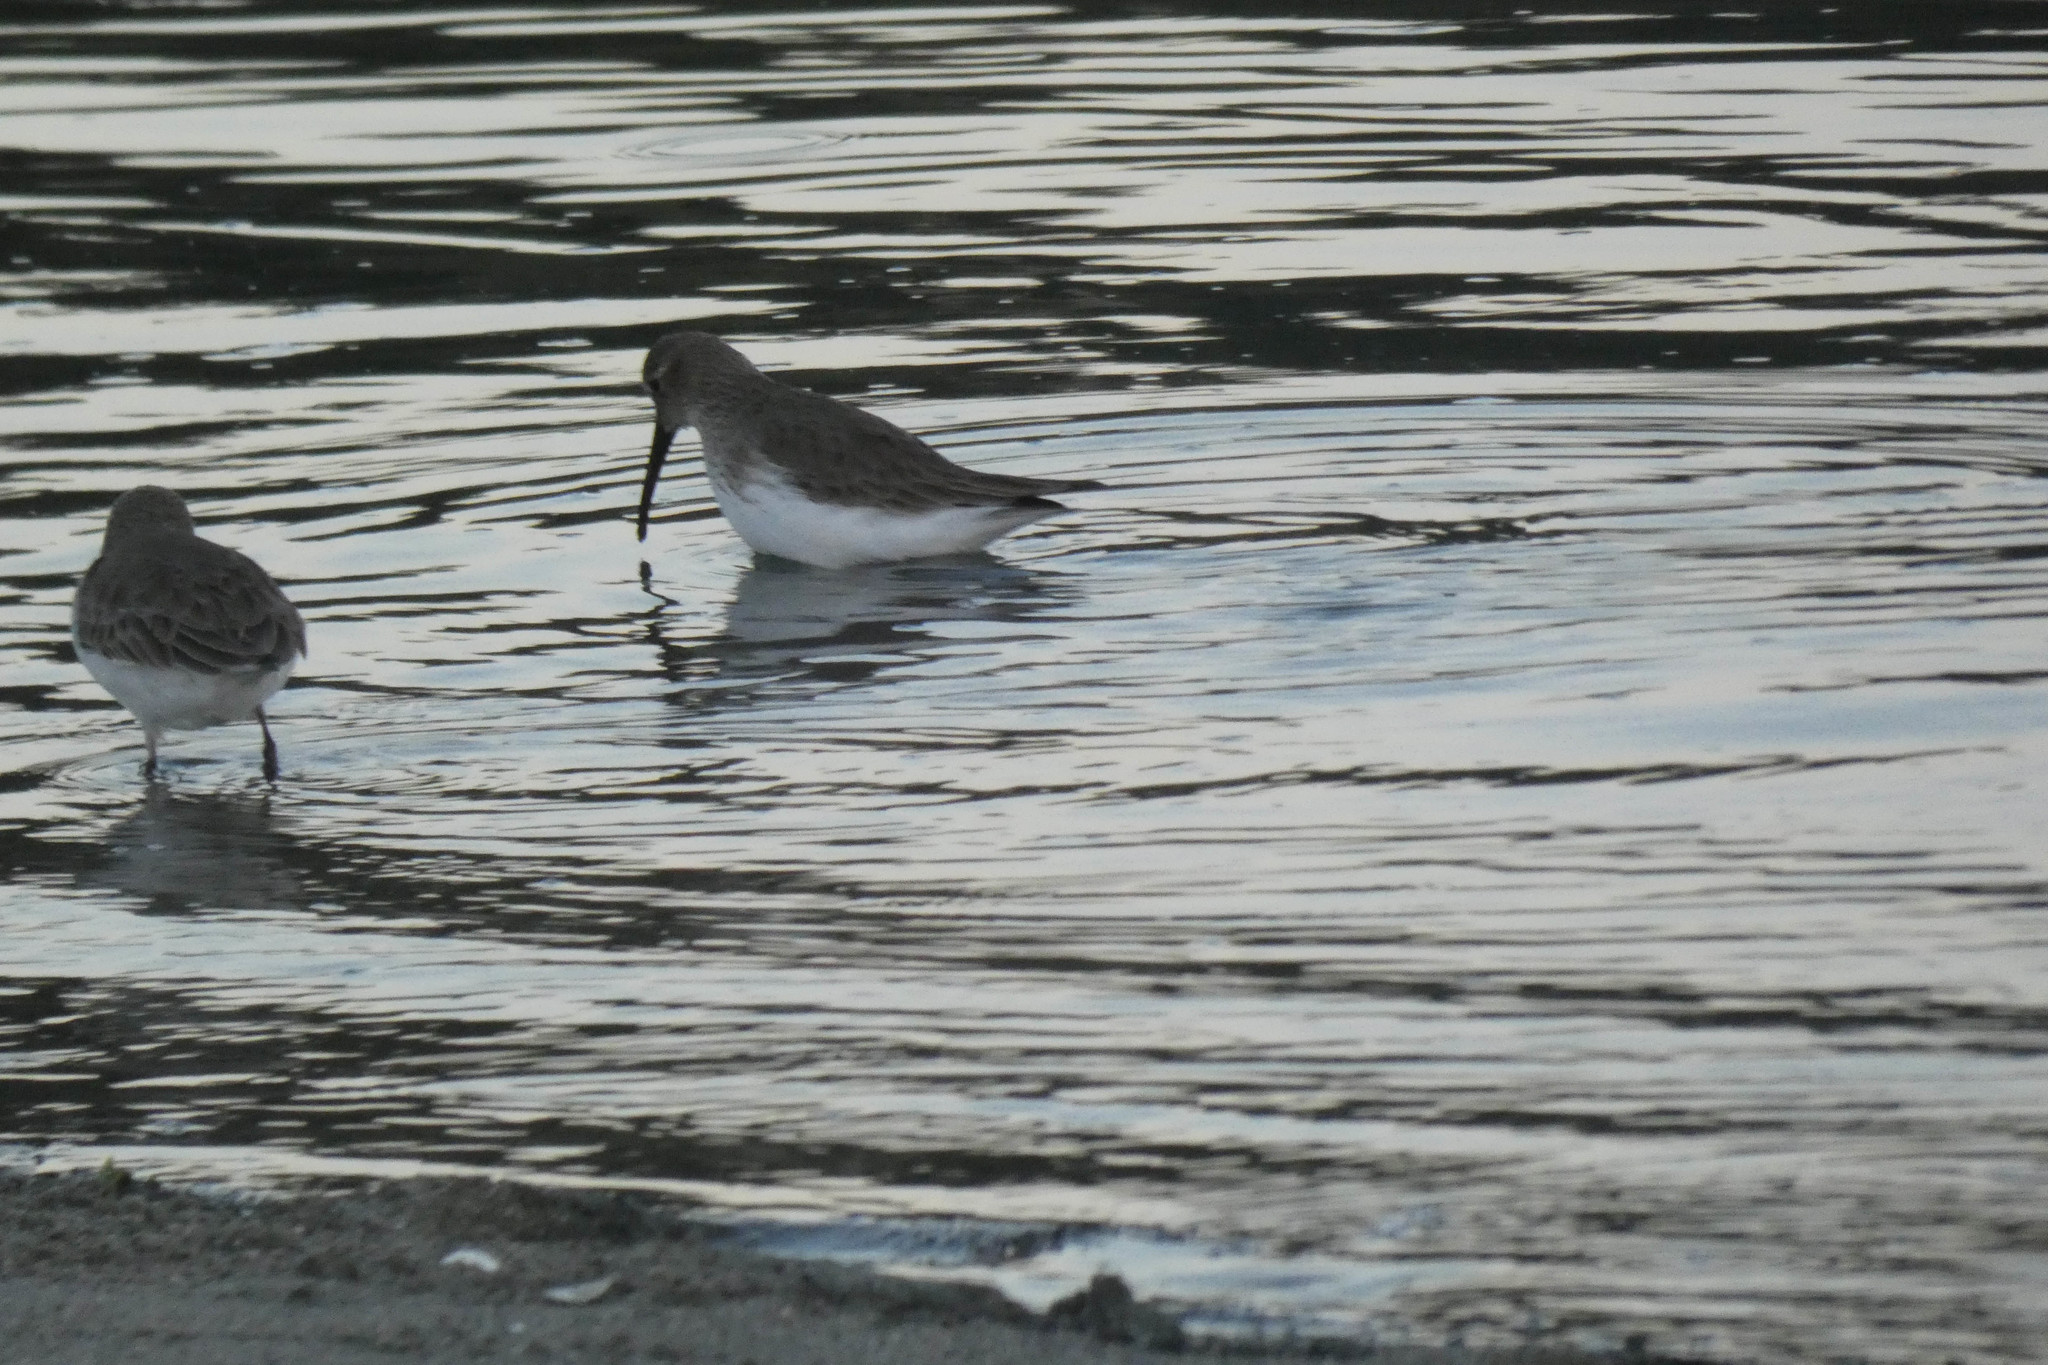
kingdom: Animalia
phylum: Chordata
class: Aves
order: Charadriiformes
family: Scolopacidae
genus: Calidris
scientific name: Calidris alpina
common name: Dunlin
